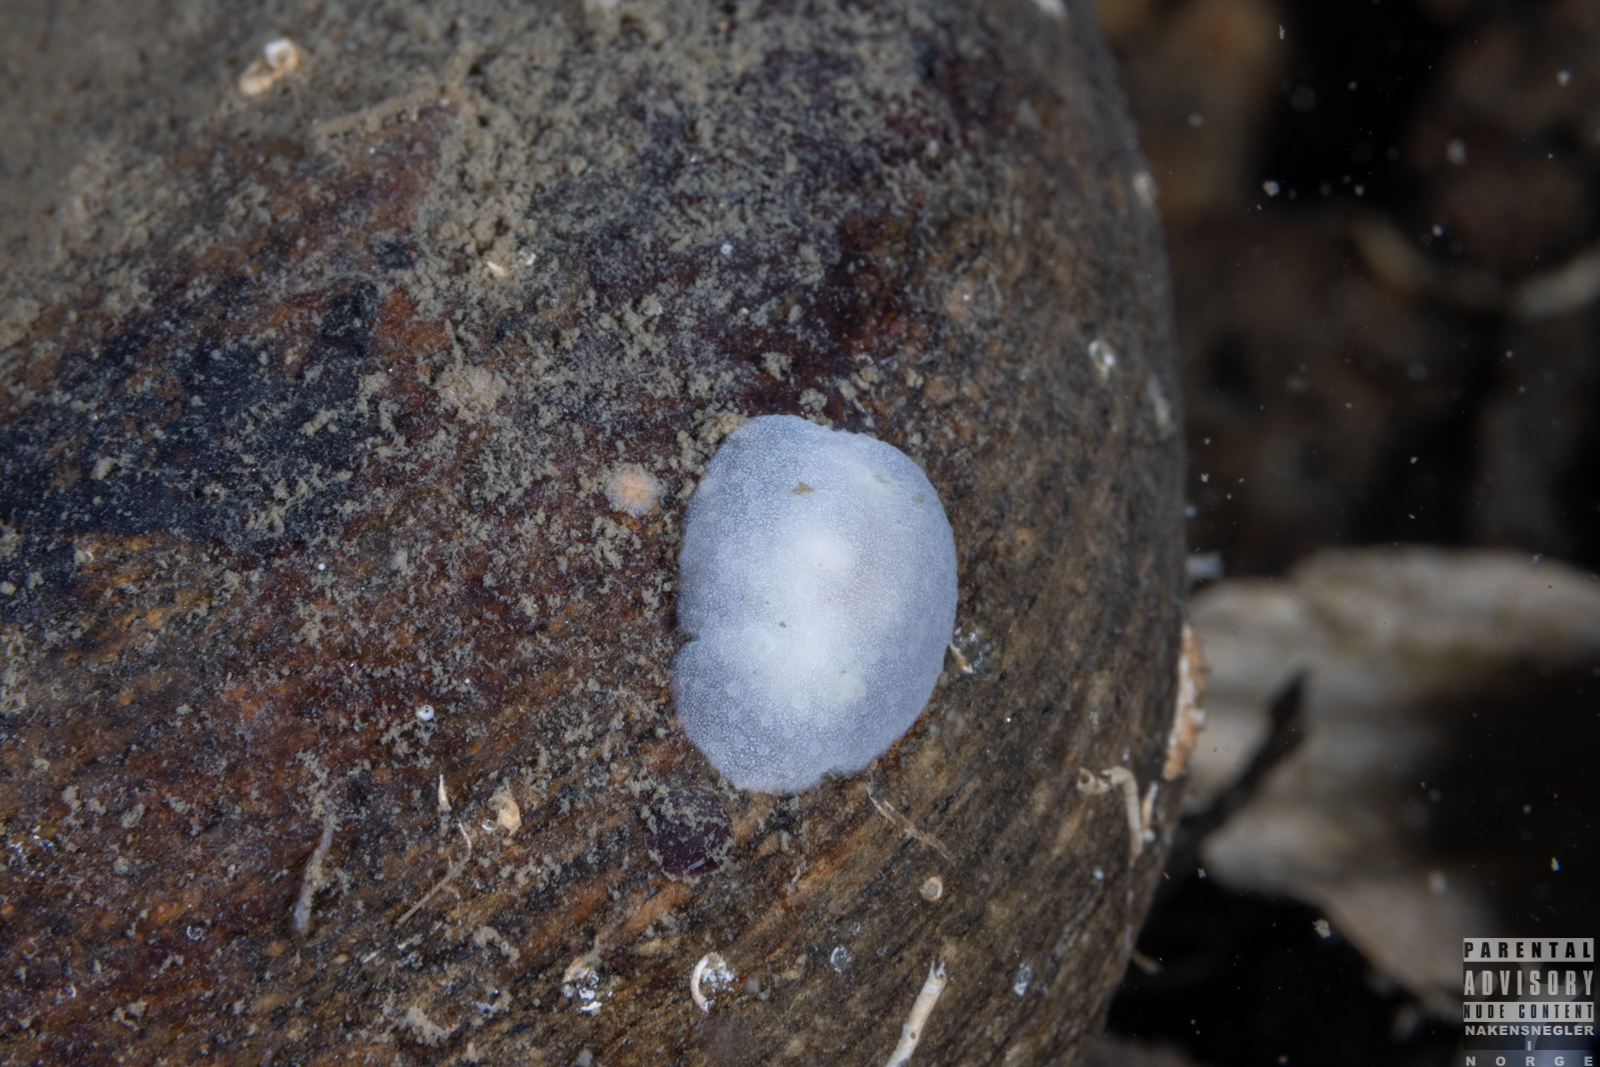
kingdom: Animalia
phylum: Mollusca
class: Gastropoda
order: Nudibranchia
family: Cadlinidae
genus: Aldisa
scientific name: Aldisa zetlandica
